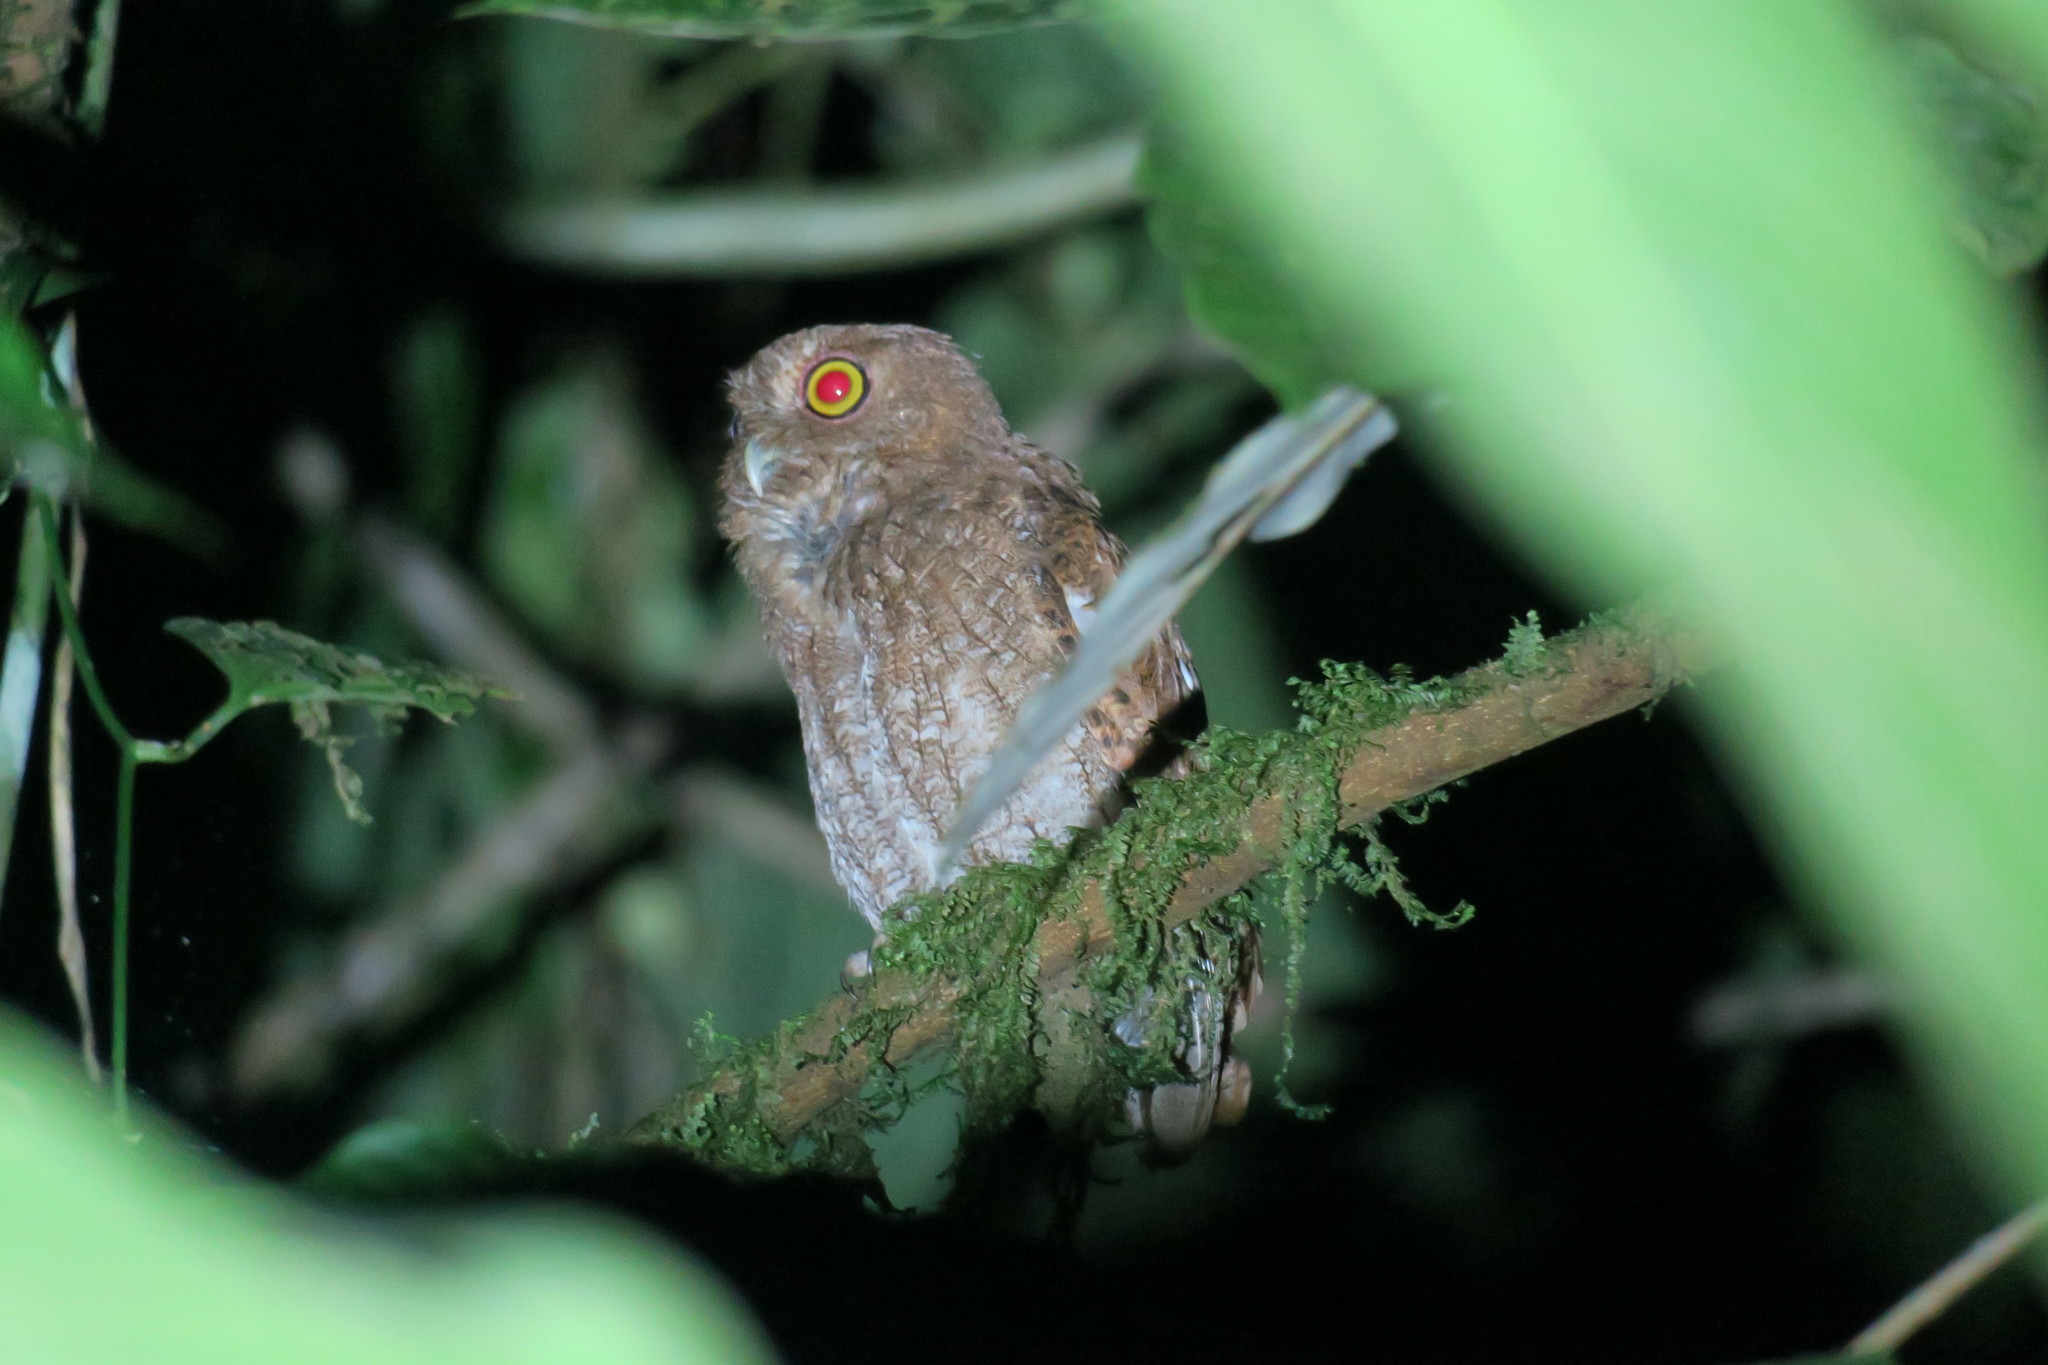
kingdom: Animalia
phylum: Chordata
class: Aves
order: Strigiformes
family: Strigidae
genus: Megascops
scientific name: Megascops centralis
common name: Choco screech owl
